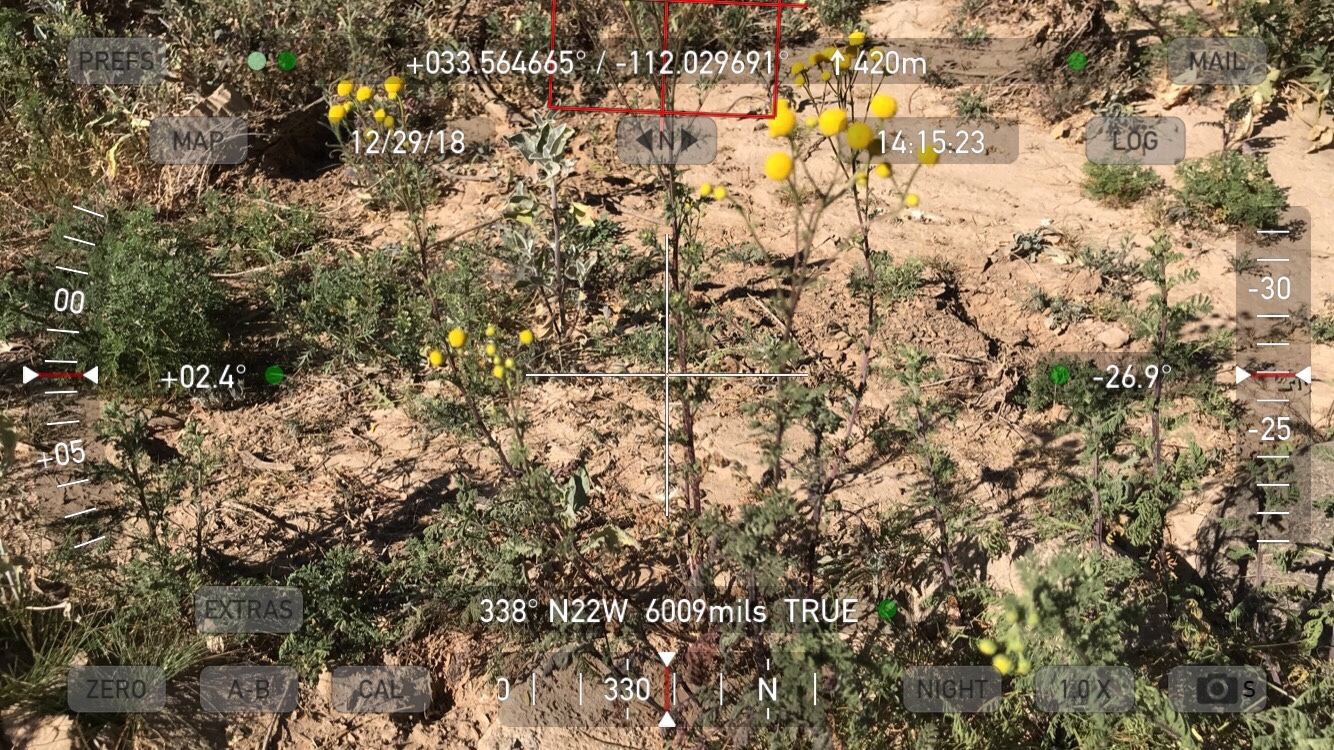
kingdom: Plantae
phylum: Tracheophyta
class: Magnoliopsida
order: Asterales
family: Asteraceae
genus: Oncosiphon
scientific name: Oncosiphon pilulifer
